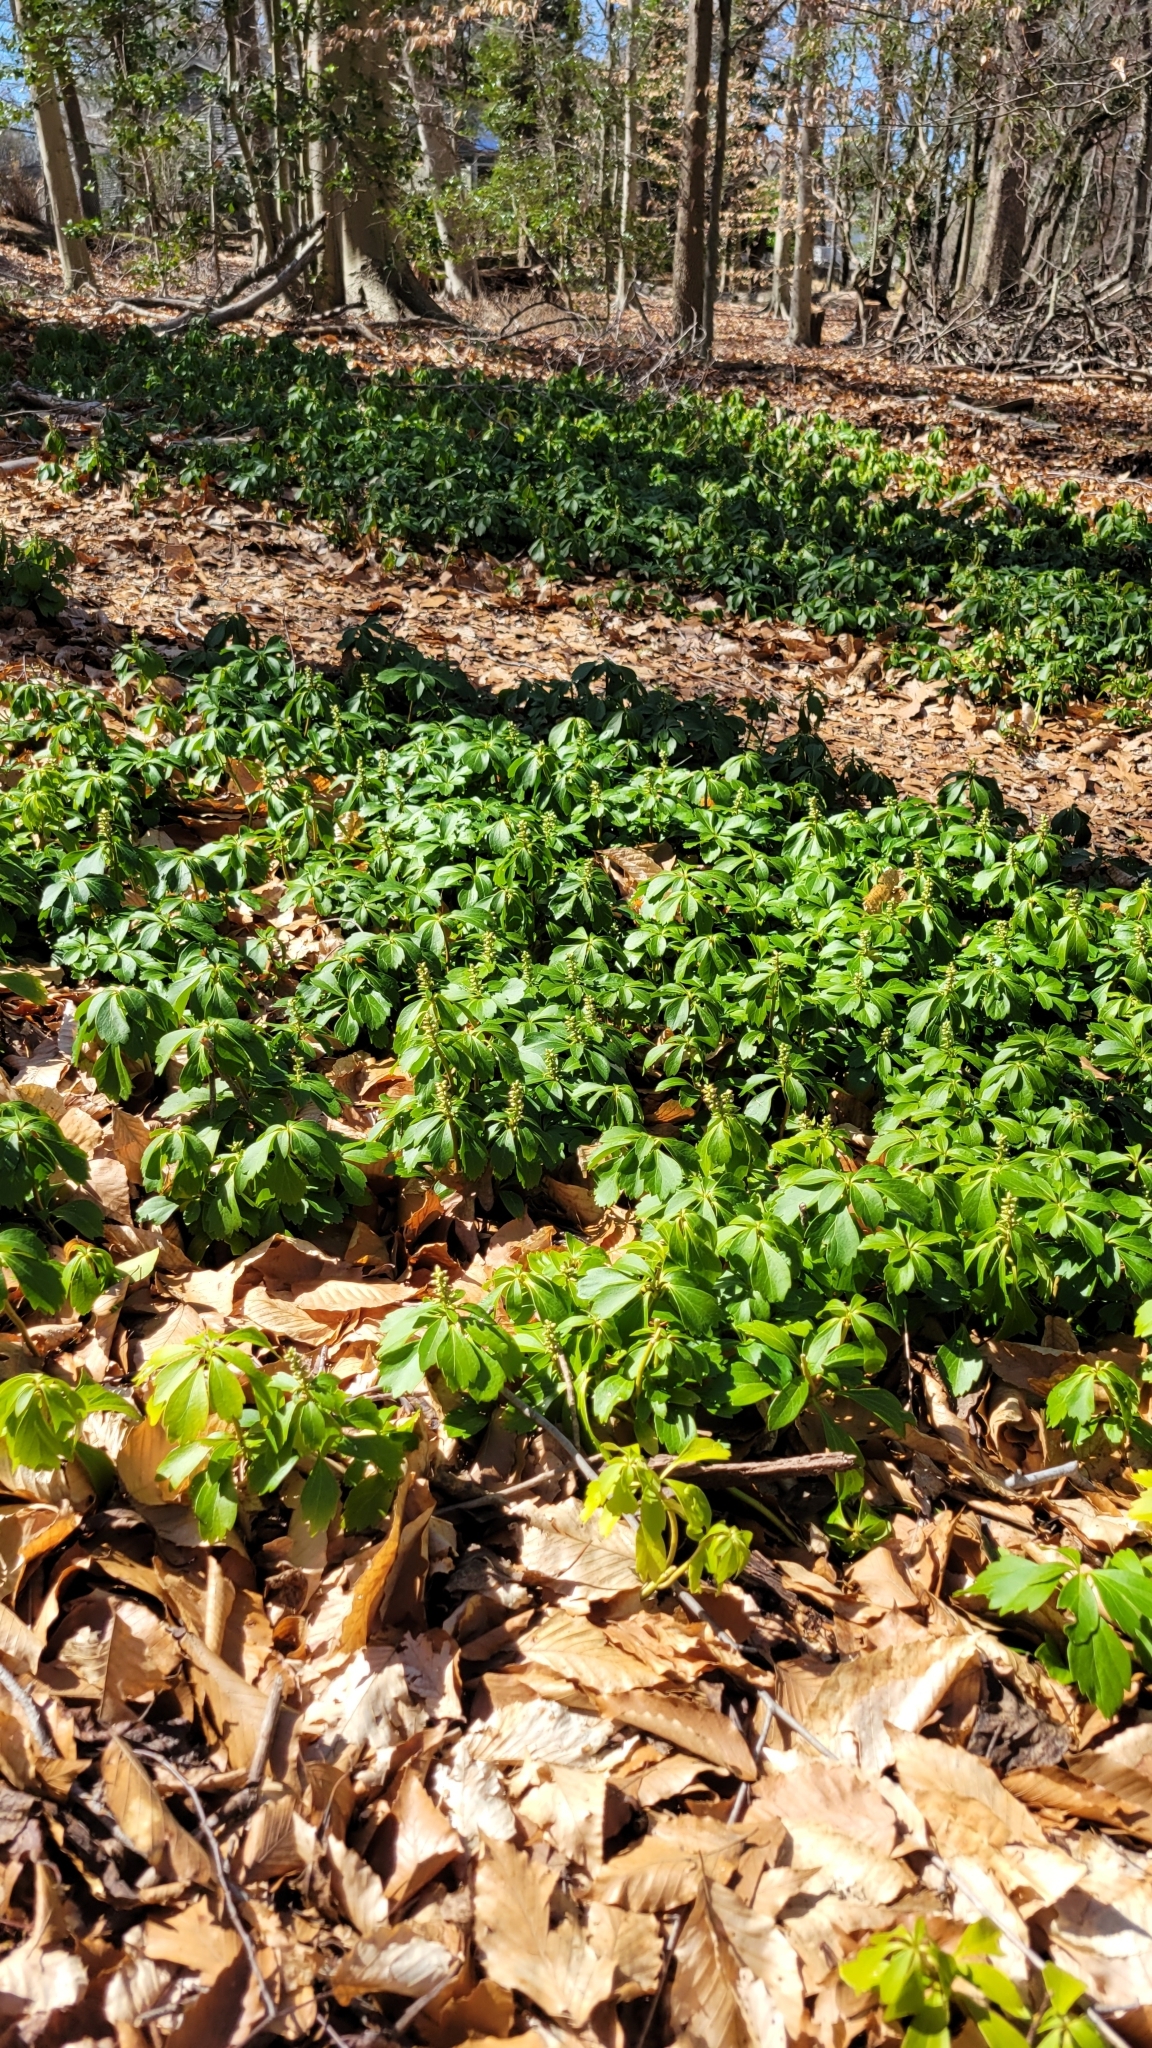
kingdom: Plantae
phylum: Tracheophyta
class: Magnoliopsida
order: Buxales
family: Buxaceae
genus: Pachysandra
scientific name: Pachysandra terminalis
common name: Japanese pachysandra
